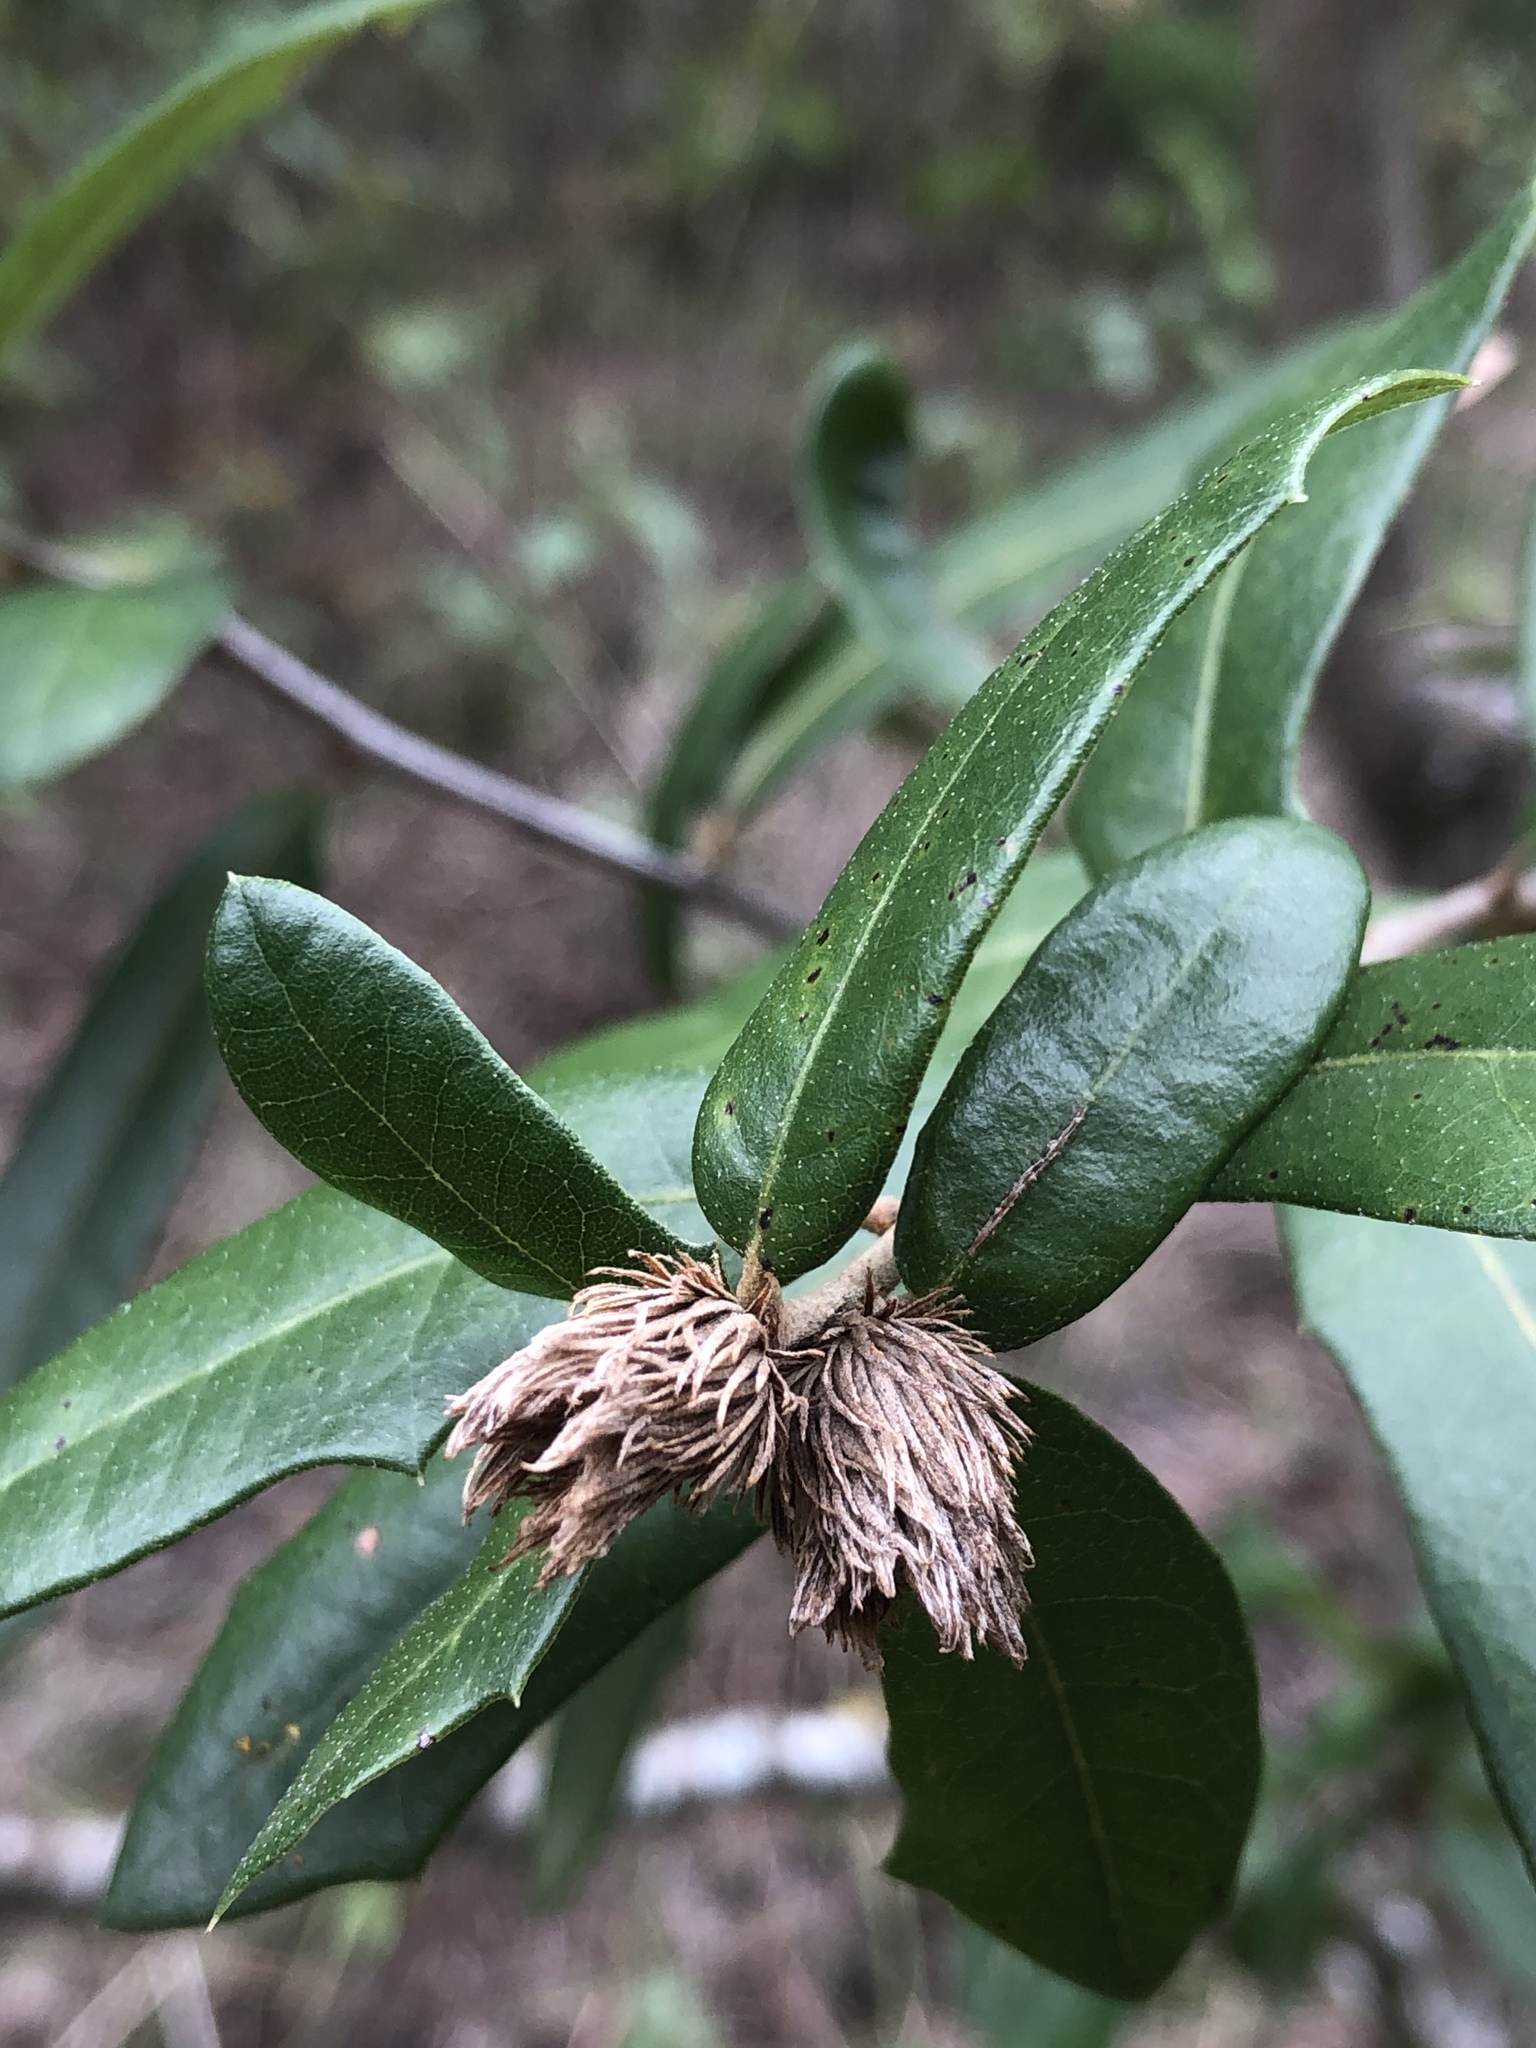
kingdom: Animalia
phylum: Arthropoda
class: Insecta
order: Hymenoptera
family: Cynipidae
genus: Andricus
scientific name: Andricus quercusfoliatus
